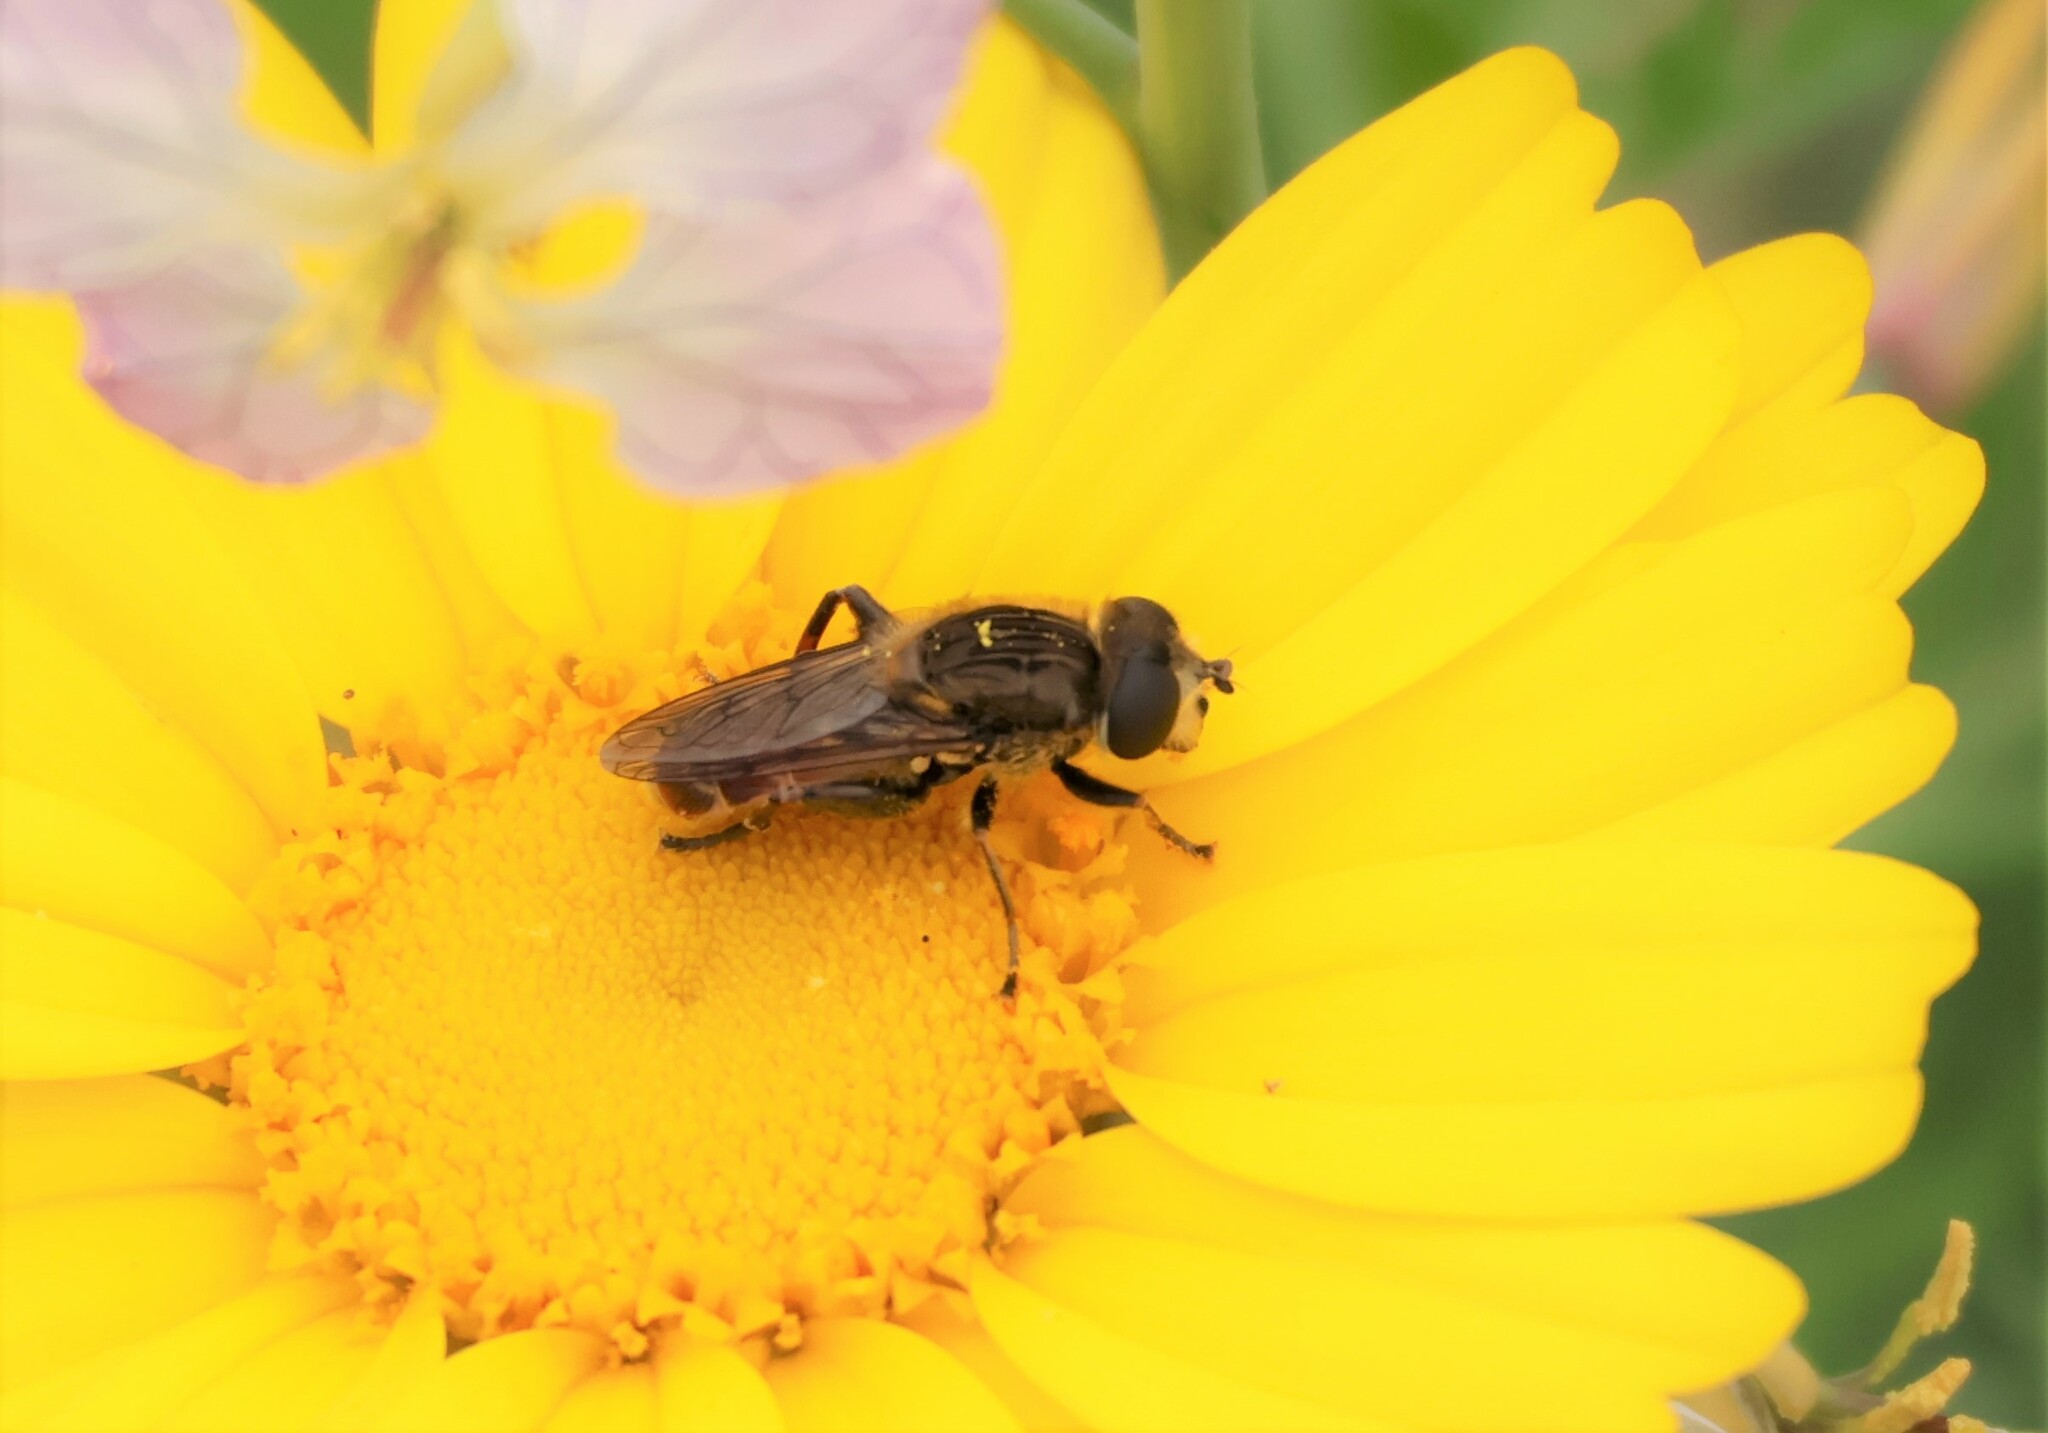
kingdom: Animalia
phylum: Arthropoda
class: Insecta
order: Diptera
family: Syrphidae
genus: Asemosyrphus
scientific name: Asemosyrphus polygrammus
